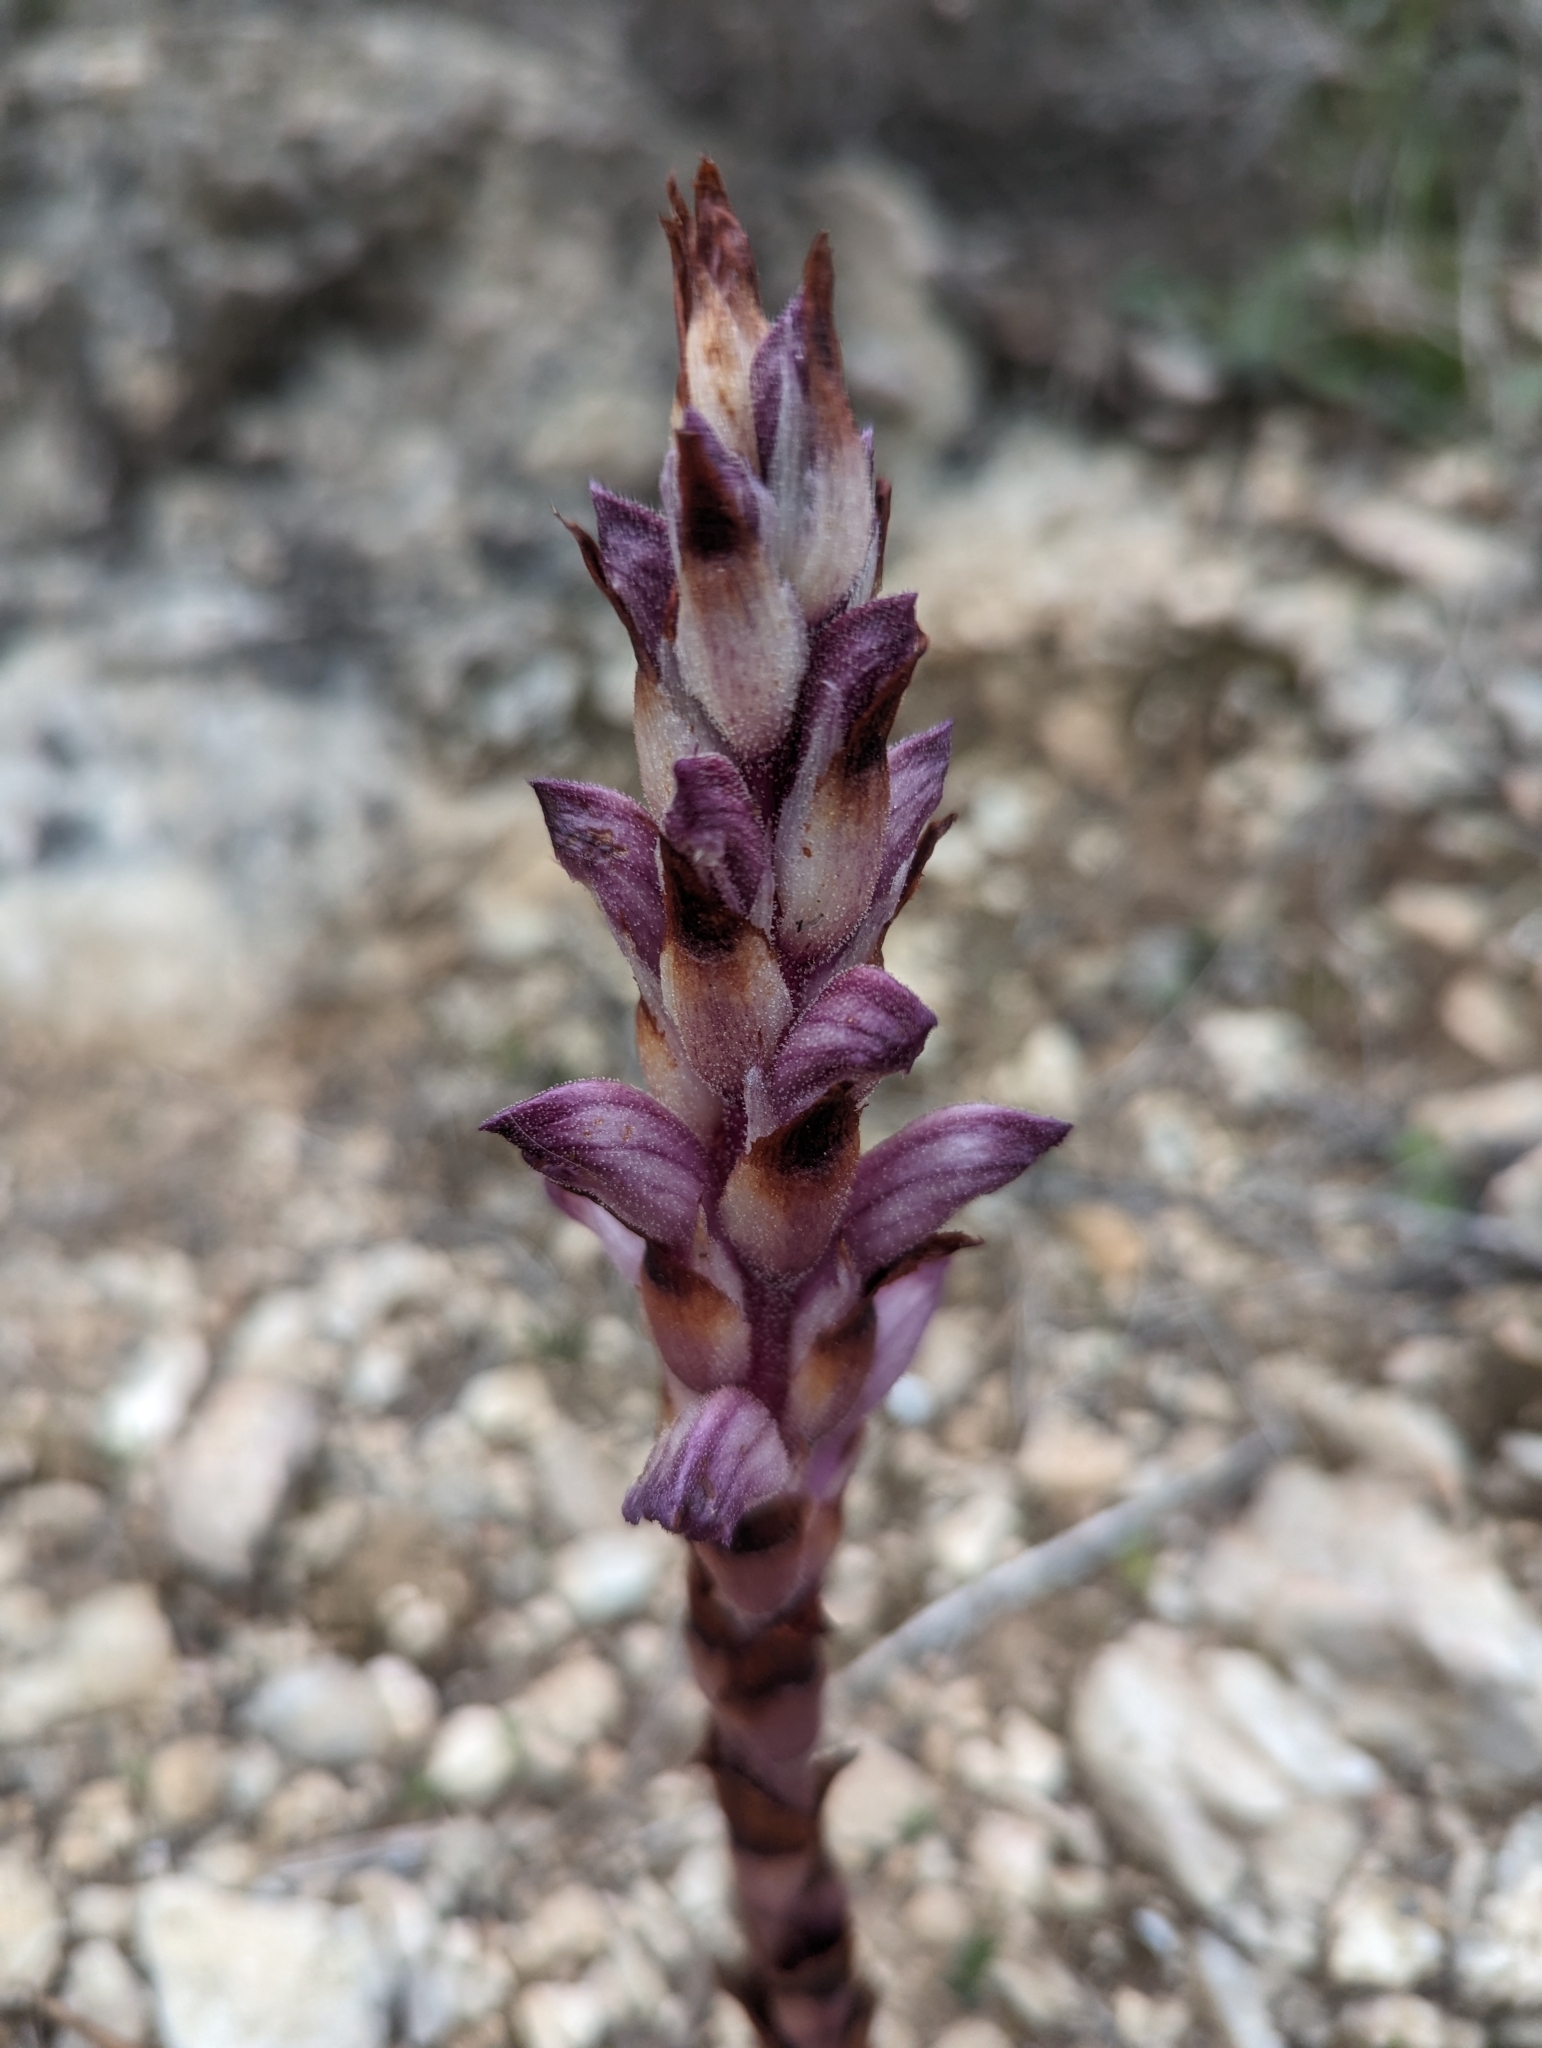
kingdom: Plantae
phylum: Tracheophyta
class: Magnoliopsida
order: Lamiales
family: Orobanchaceae
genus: Boulardia
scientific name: Boulardia latisquama
